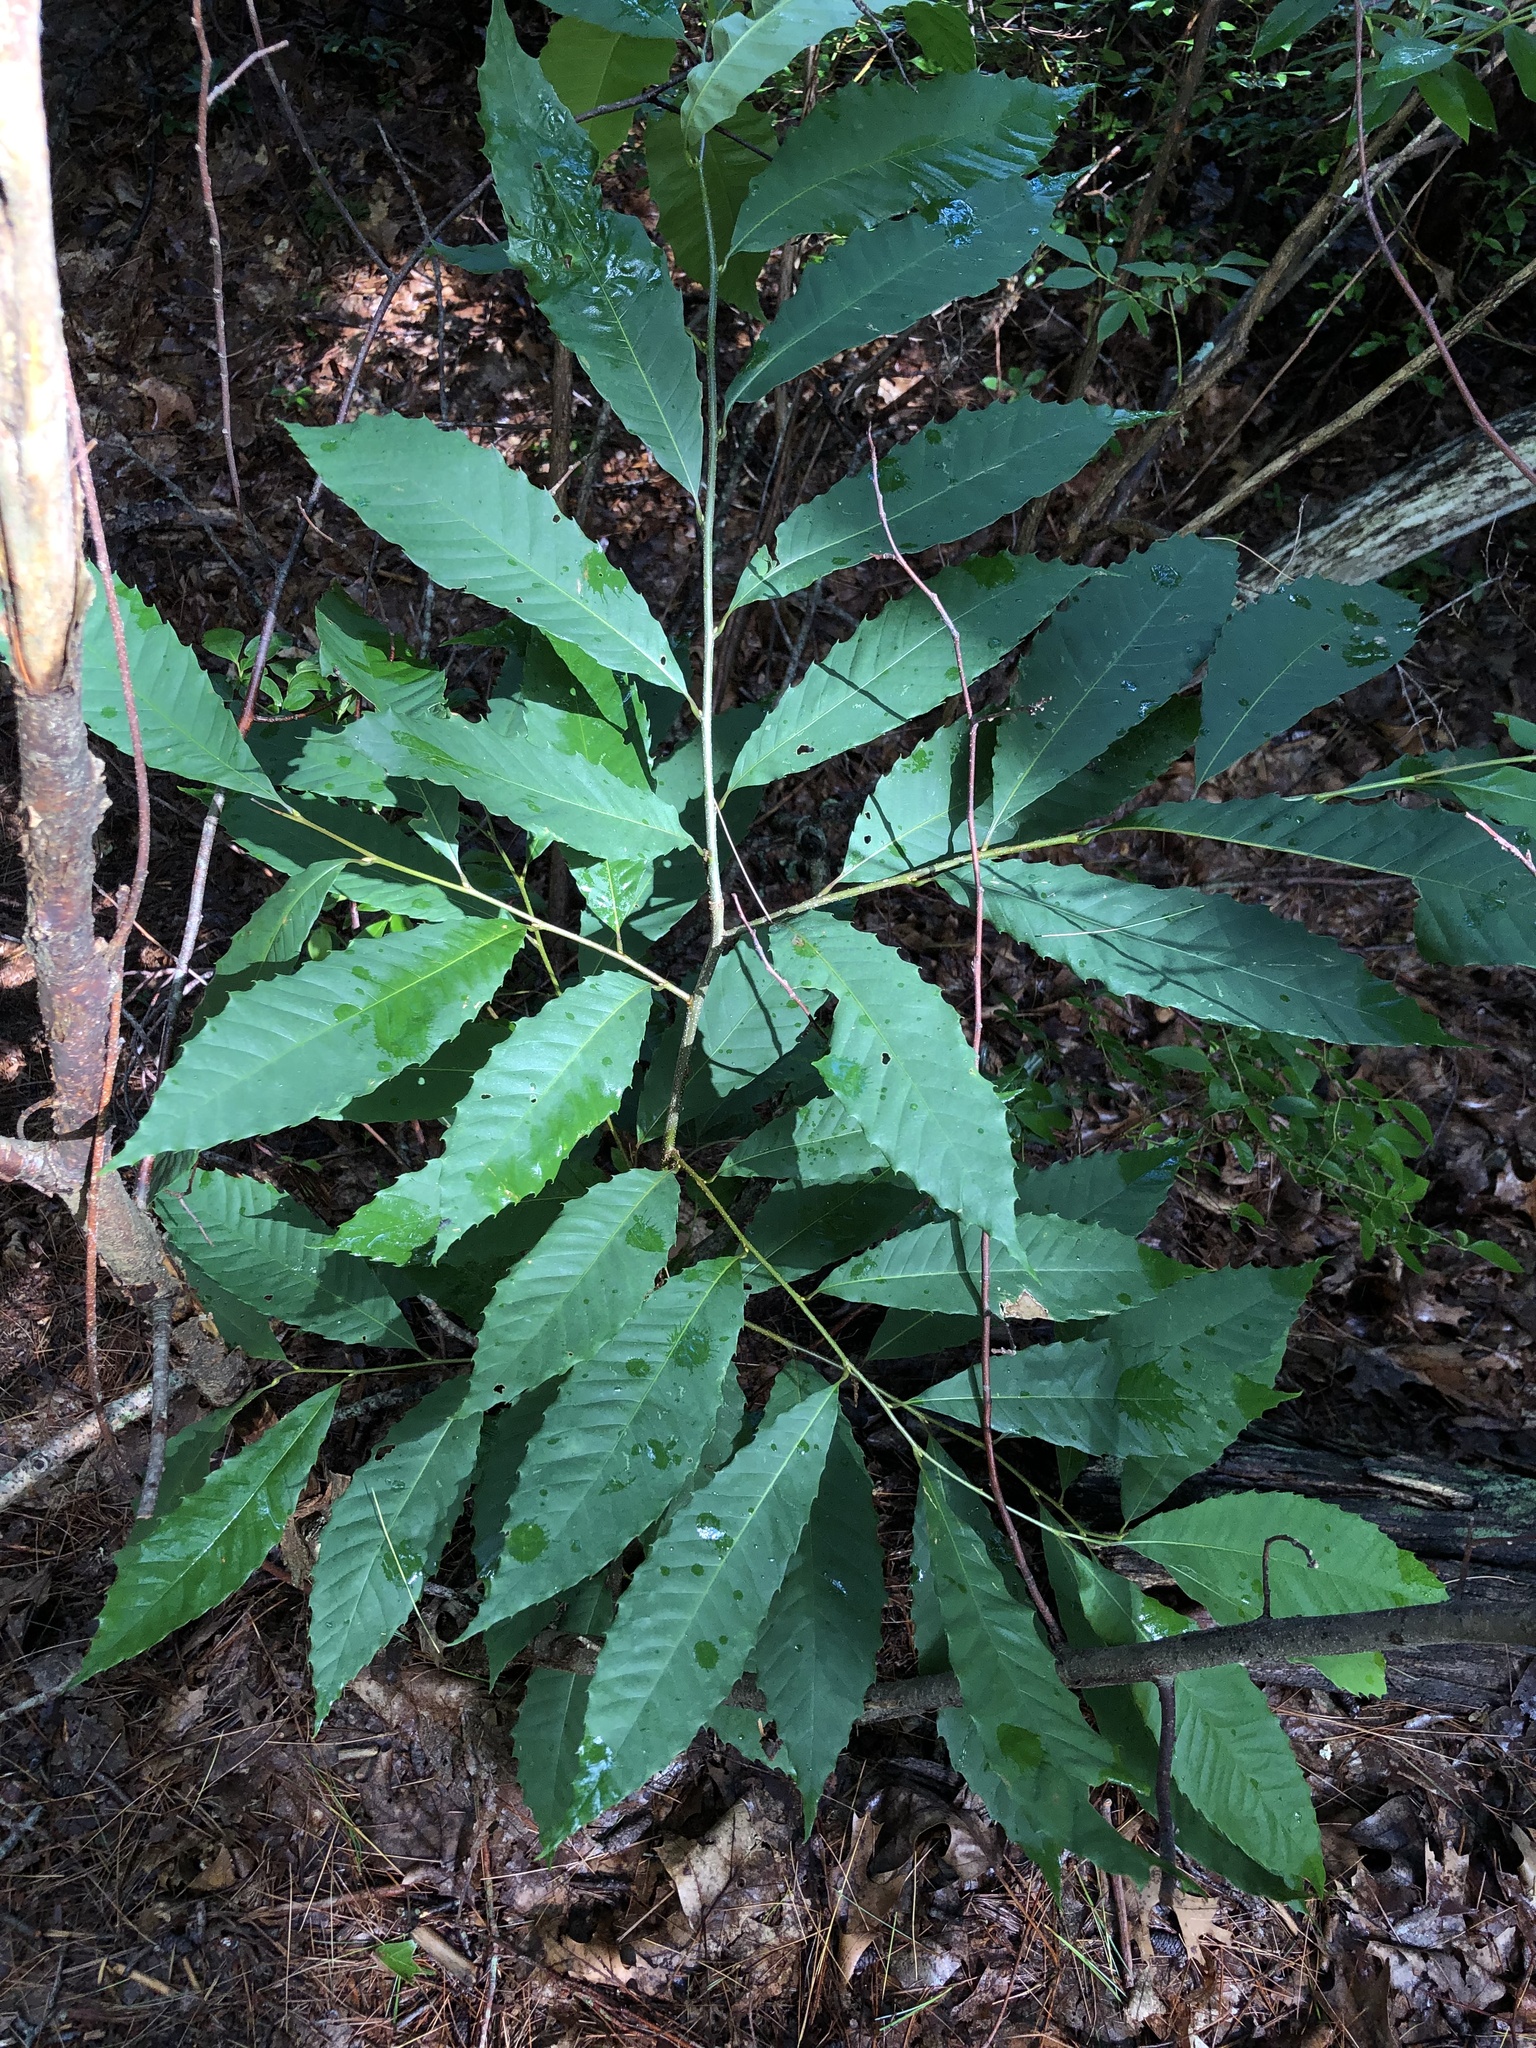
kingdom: Plantae
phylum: Tracheophyta
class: Magnoliopsida
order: Fagales
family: Fagaceae
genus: Castanea
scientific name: Castanea dentata
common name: American chestnut
